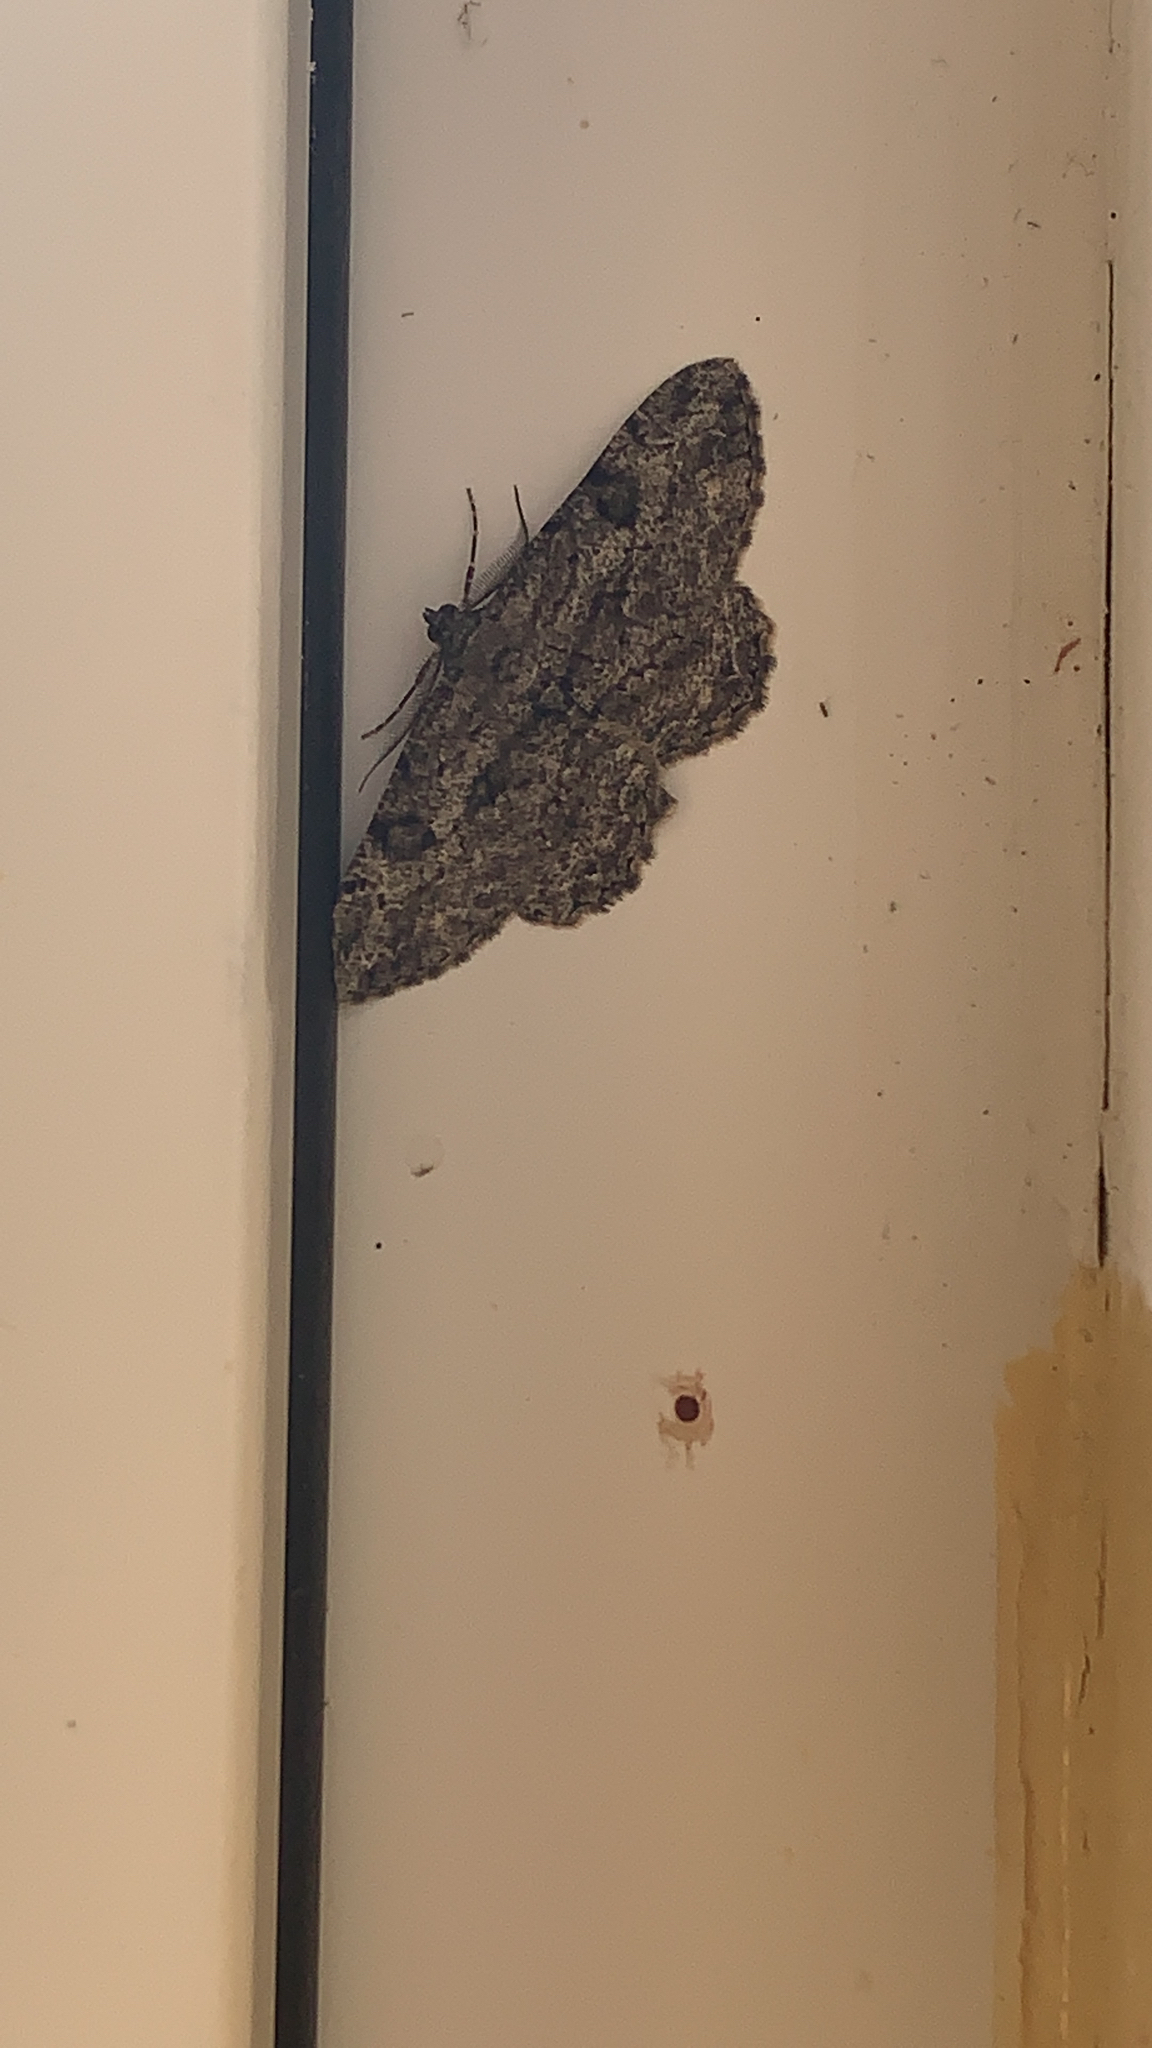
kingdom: Animalia
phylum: Arthropoda
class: Insecta
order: Lepidoptera
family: Geometridae
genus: Peribatodes
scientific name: Peribatodes rhomboidaria
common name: Willow beauty
